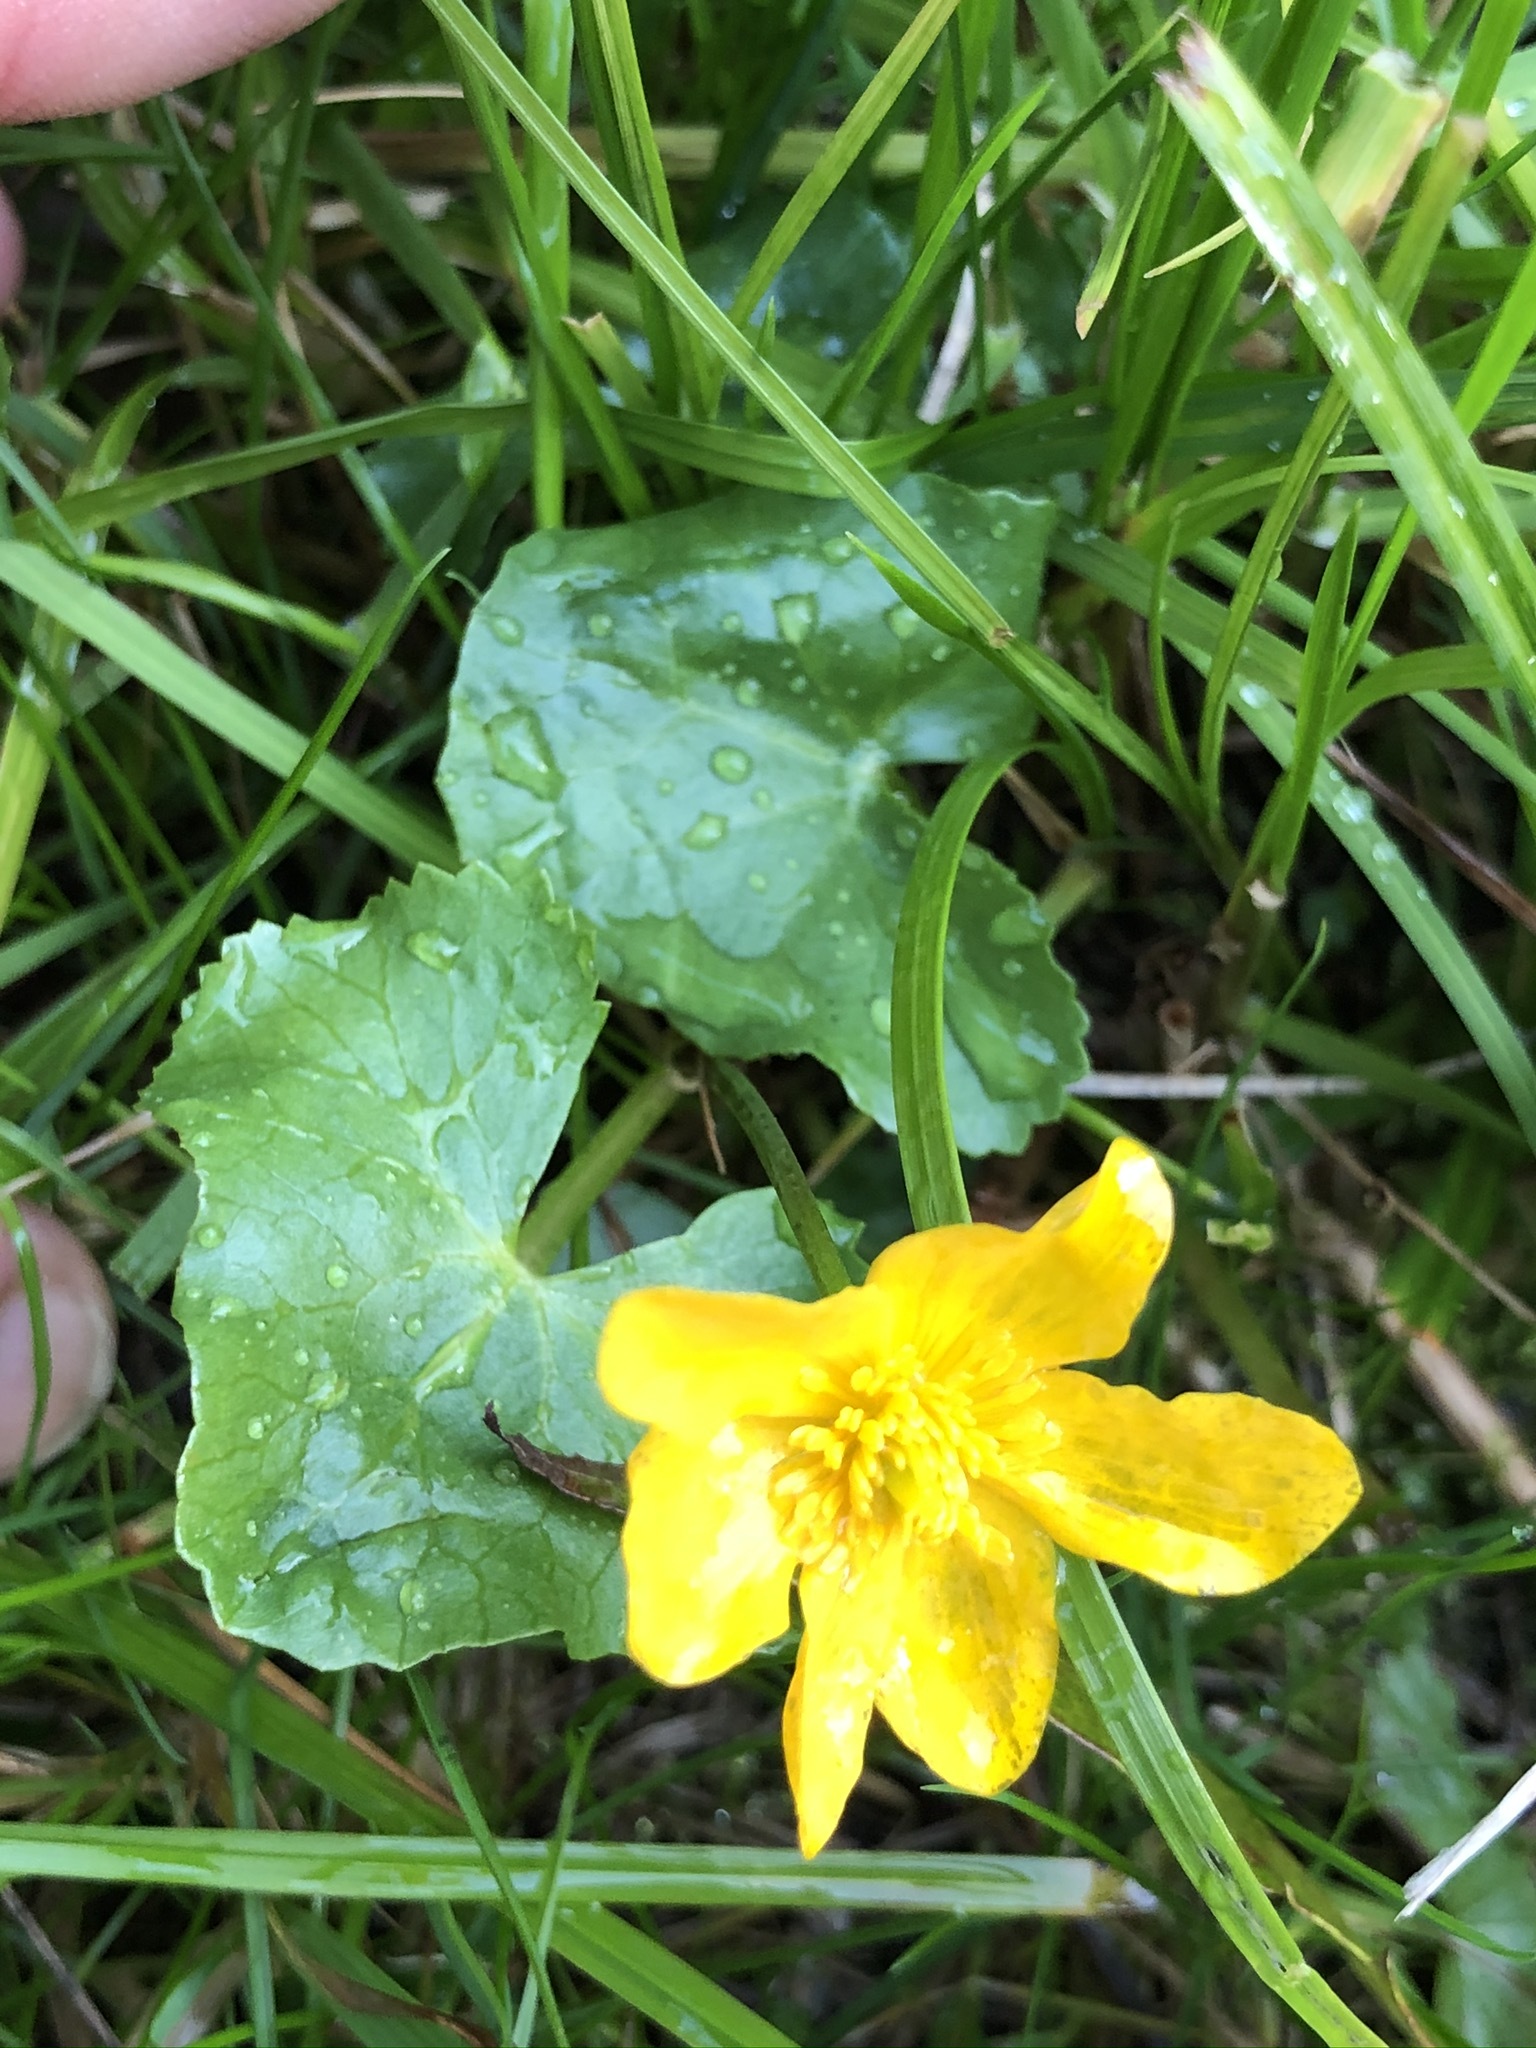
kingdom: Plantae
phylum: Tracheophyta
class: Magnoliopsida
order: Ranunculales
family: Ranunculaceae
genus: Caltha
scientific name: Caltha palustris
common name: Marsh marigold
